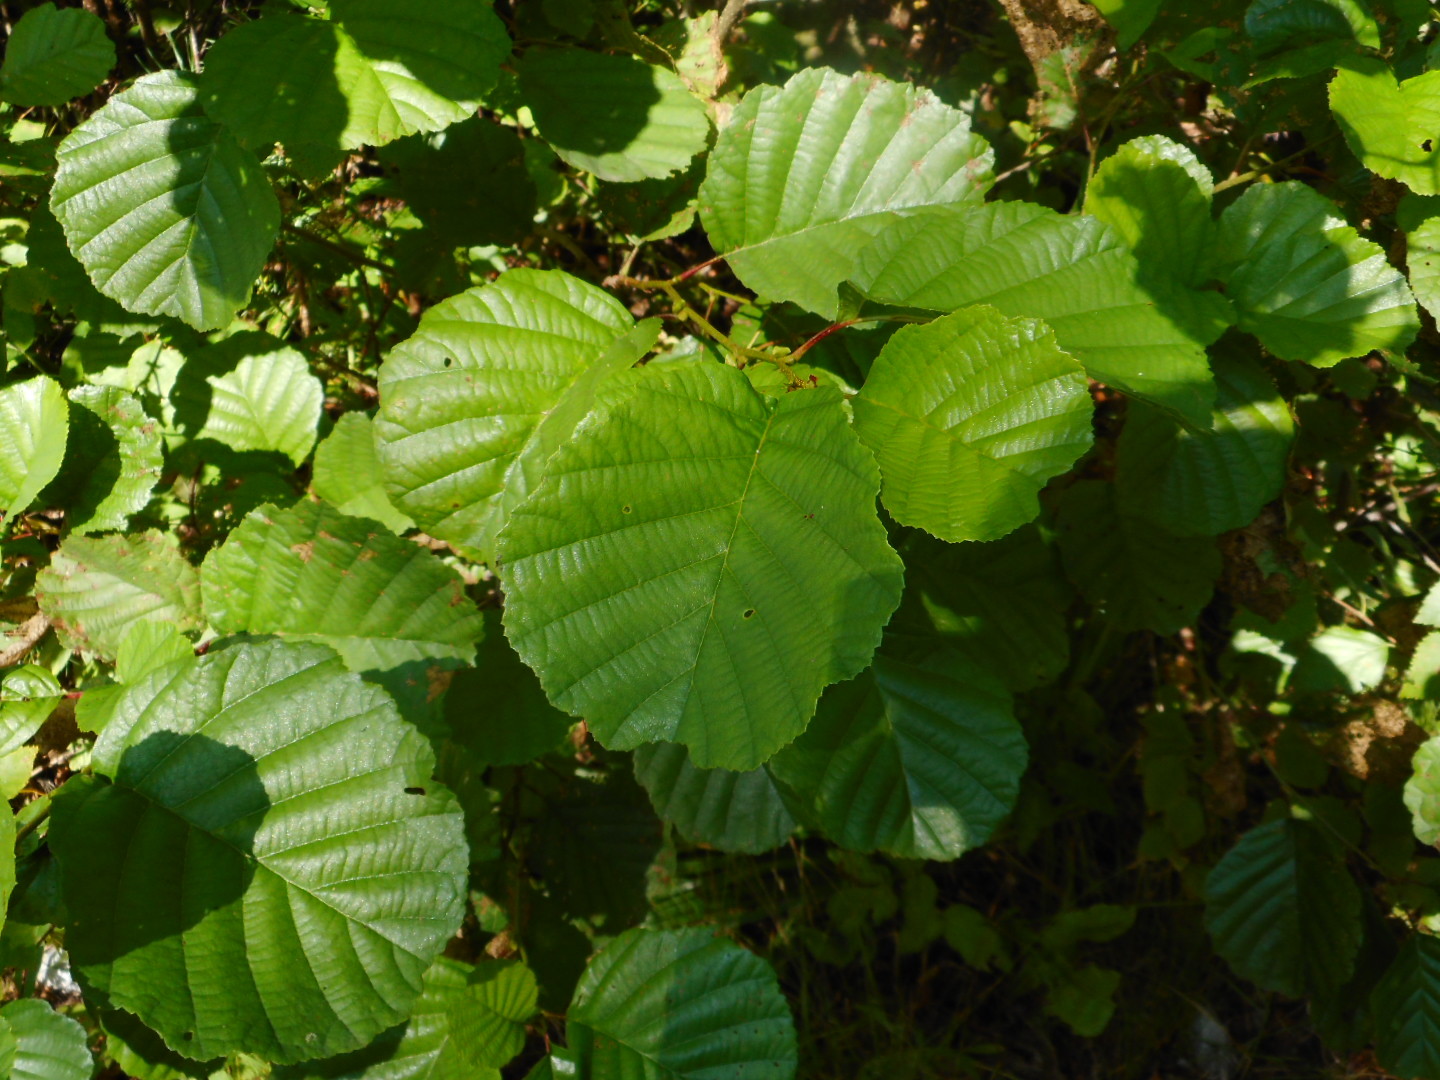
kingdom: Plantae
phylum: Tracheophyta
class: Magnoliopsida
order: Fagales
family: Betulaceae
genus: Alnus
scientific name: Alnus glutinosa
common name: Black alder
